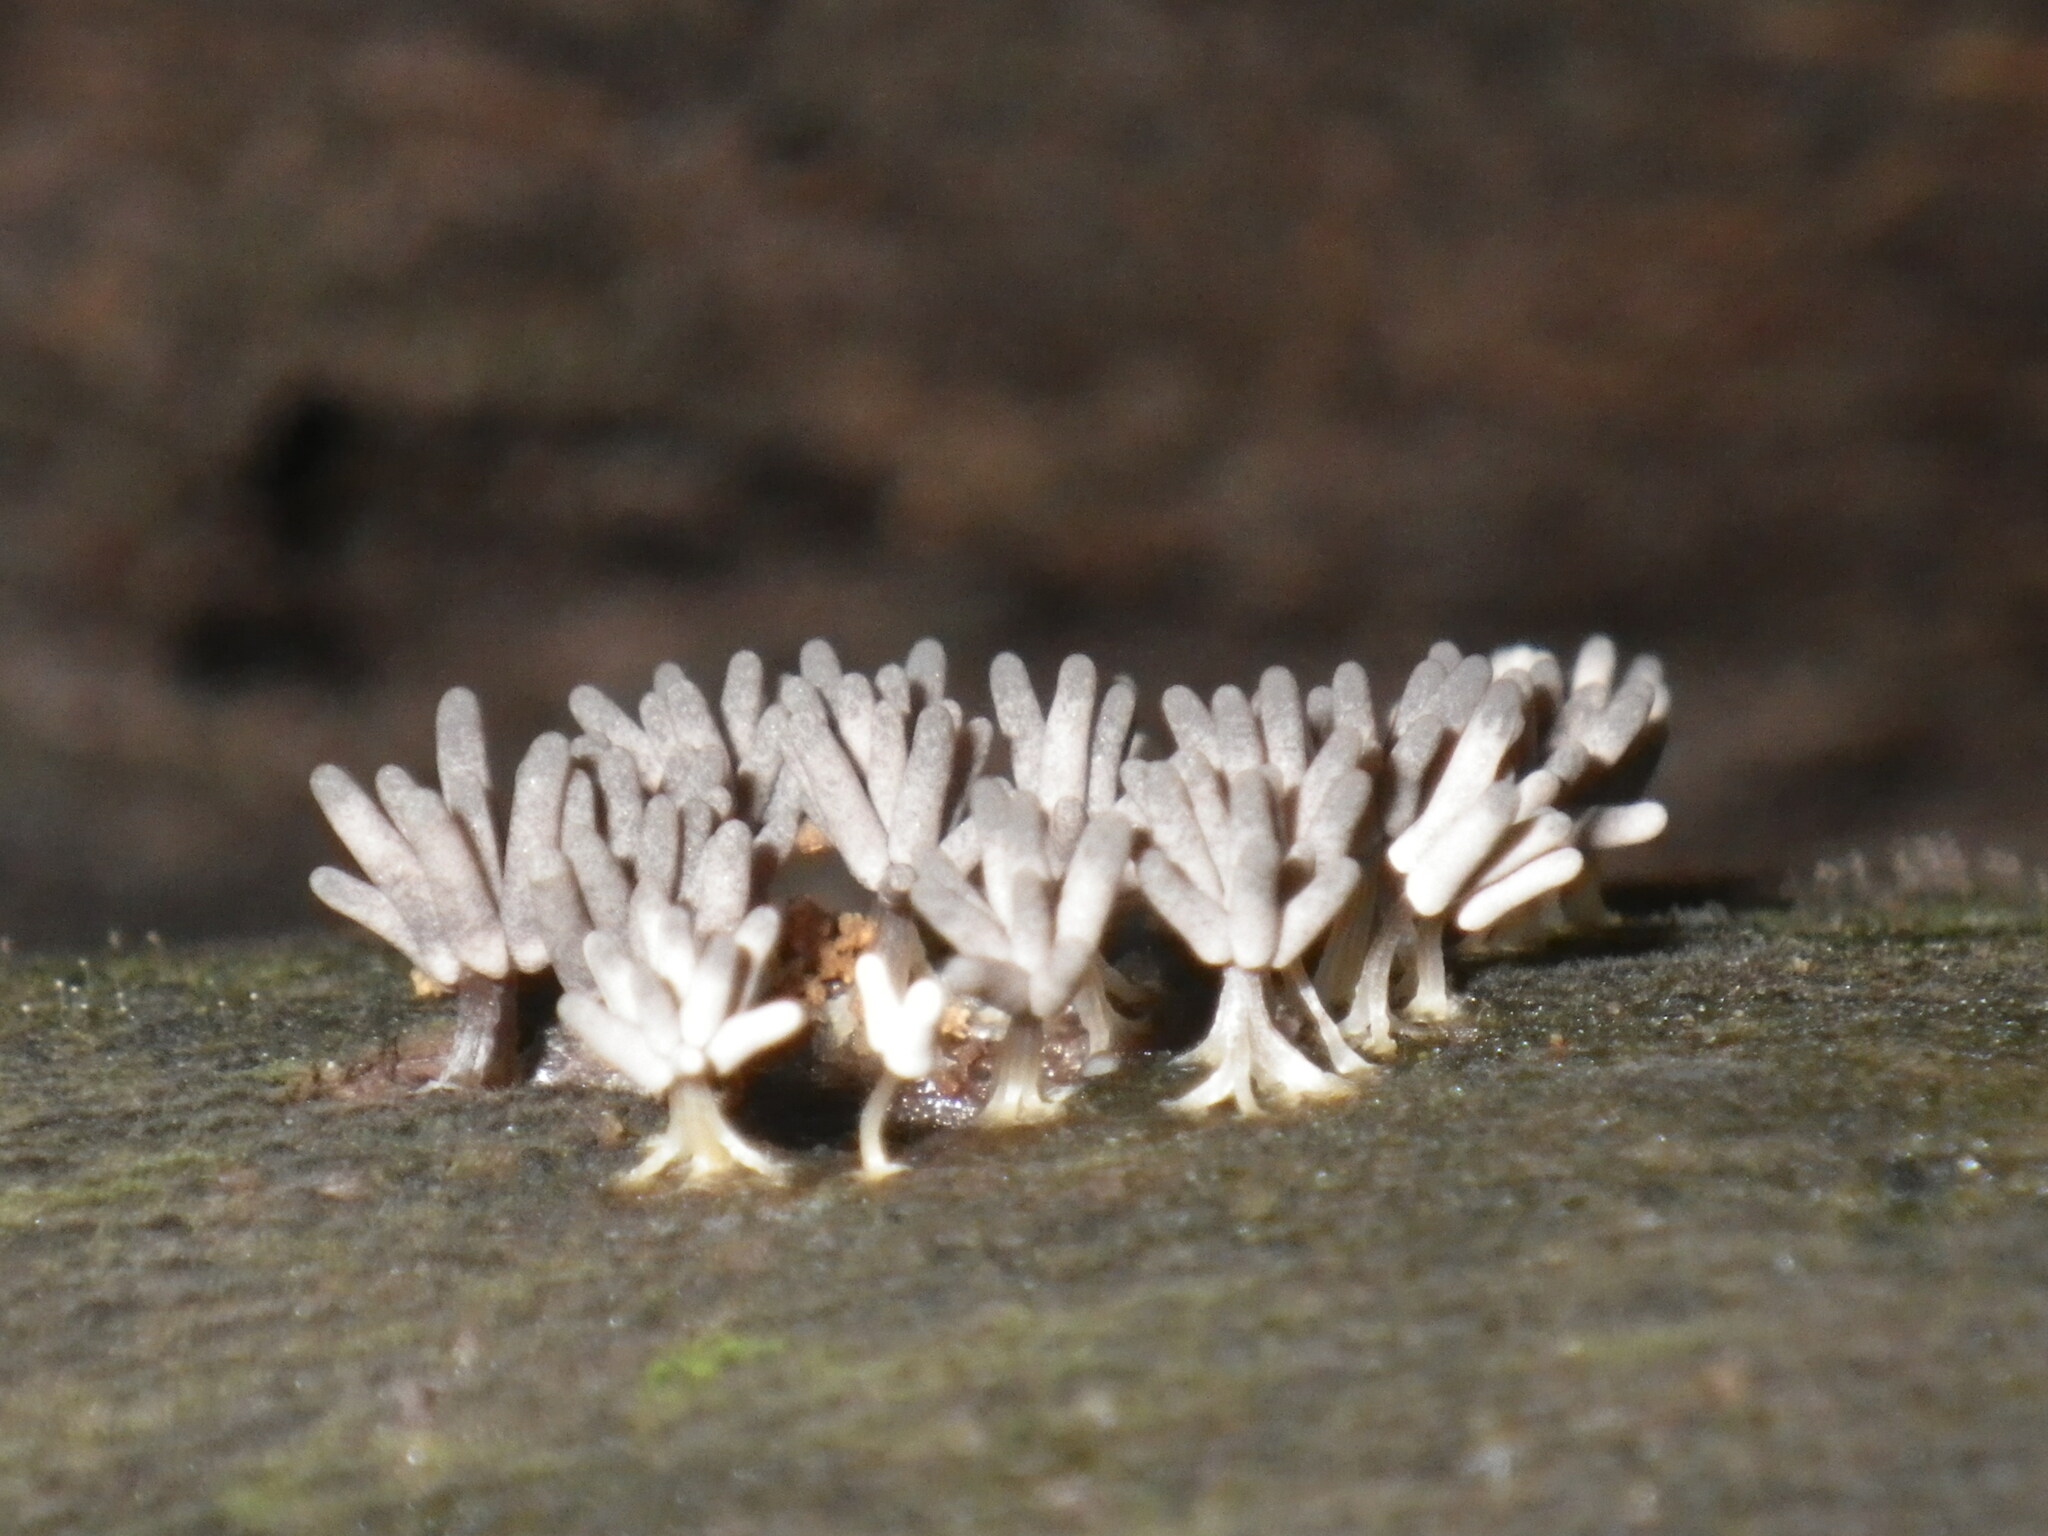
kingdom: Protozoa
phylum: Mycetozoa
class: Myxomycetes
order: Trichiales
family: Arcyriaceae
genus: Arcyria
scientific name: Arcyria cinerea
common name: White carnival candy slime mold
